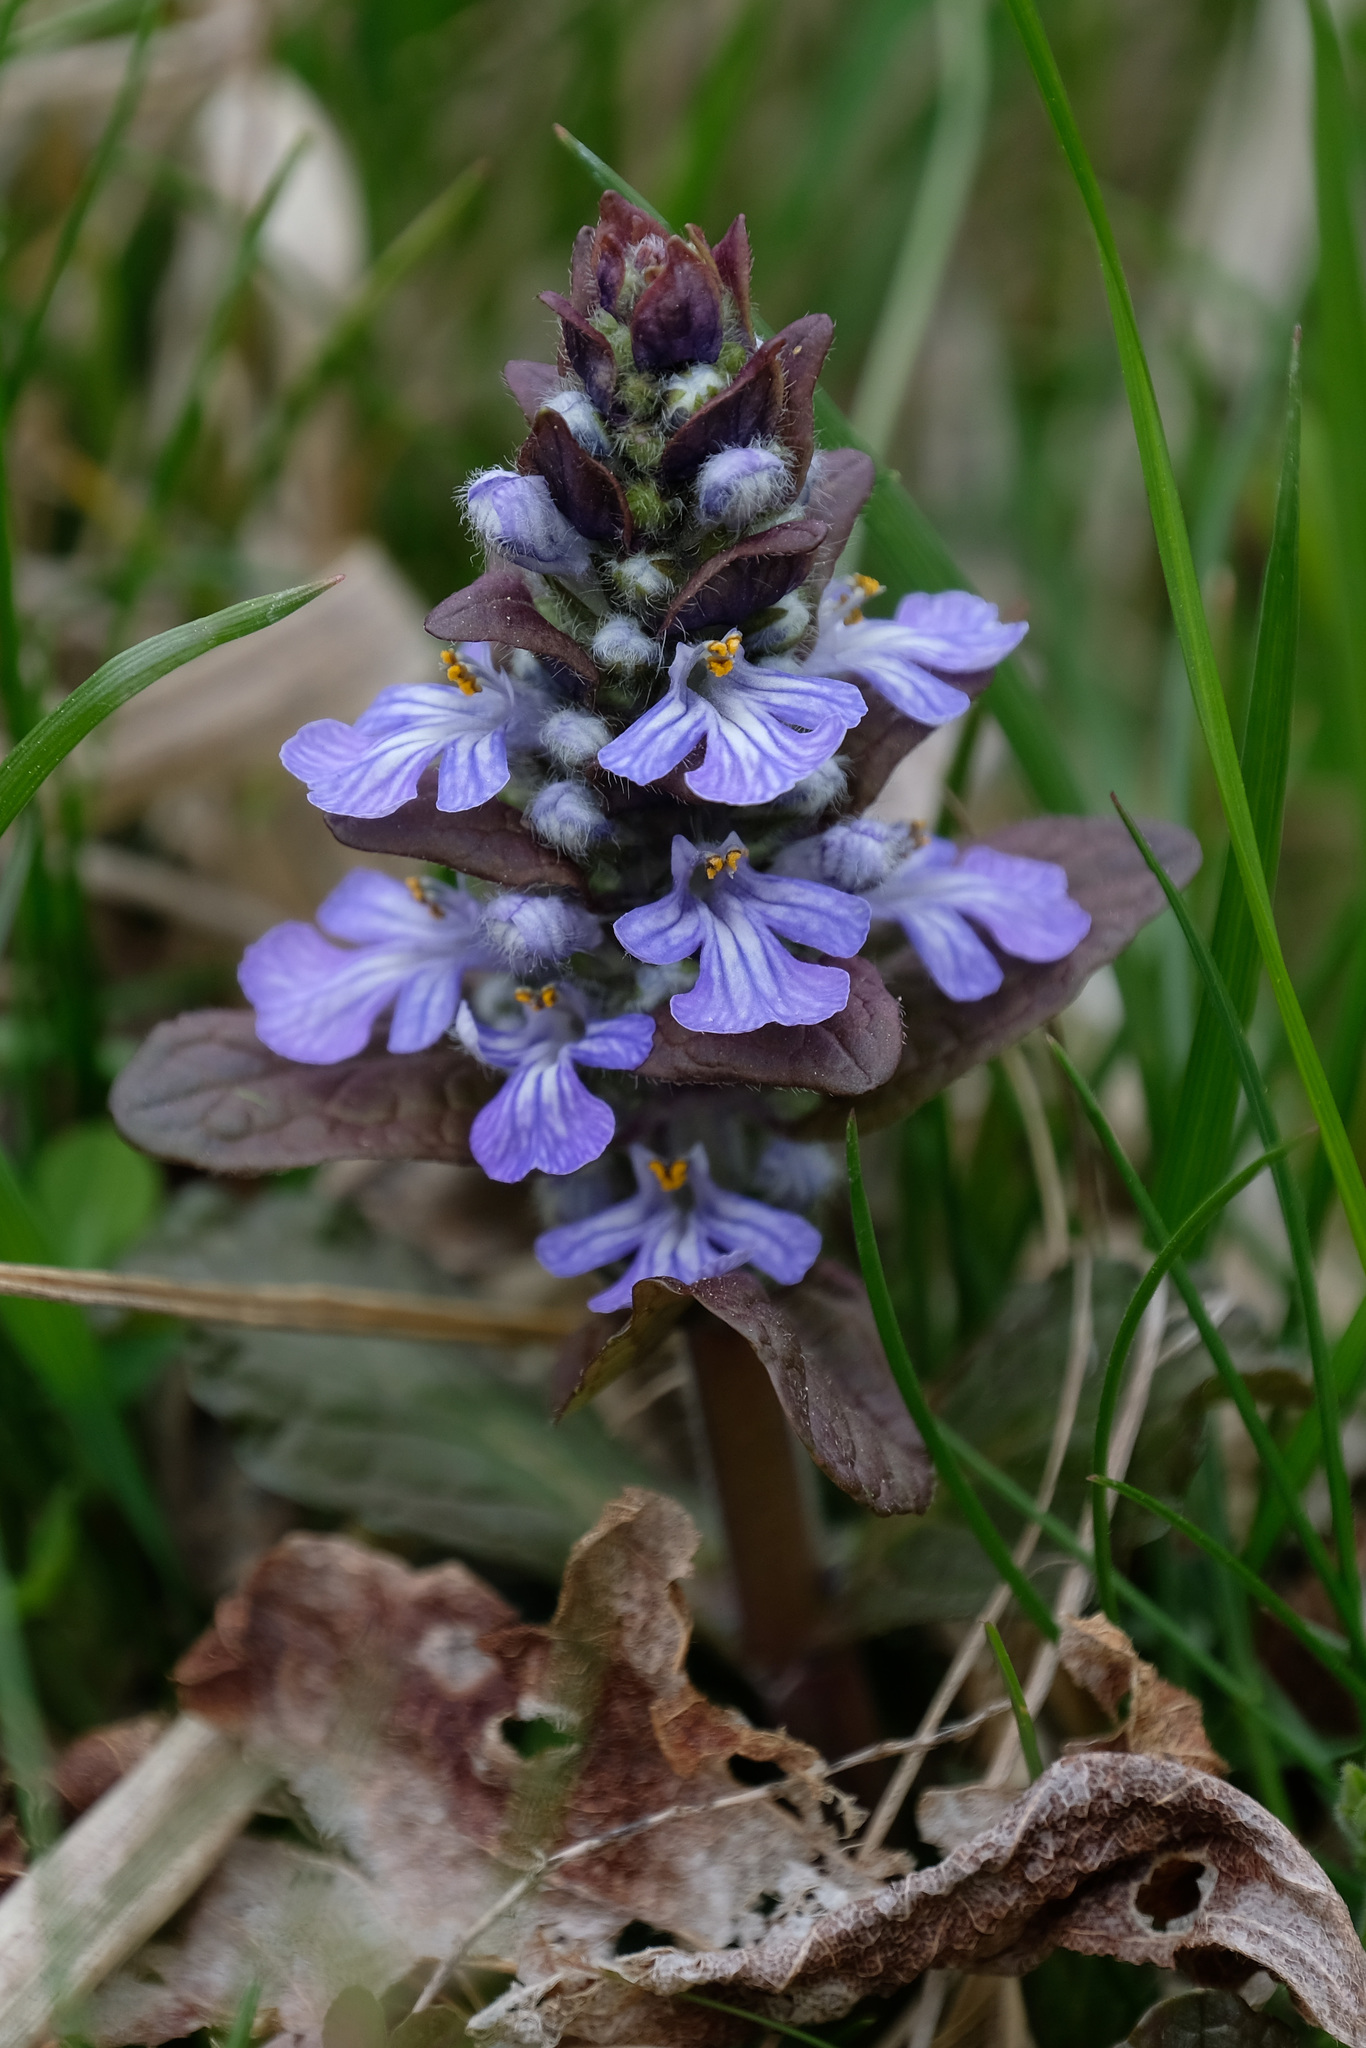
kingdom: Plantae
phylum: Tracheophyta
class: Magnoliopsida
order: Lamiales
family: Lamiaceae
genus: Ajuga
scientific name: Ajuga reptans
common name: Bugle
